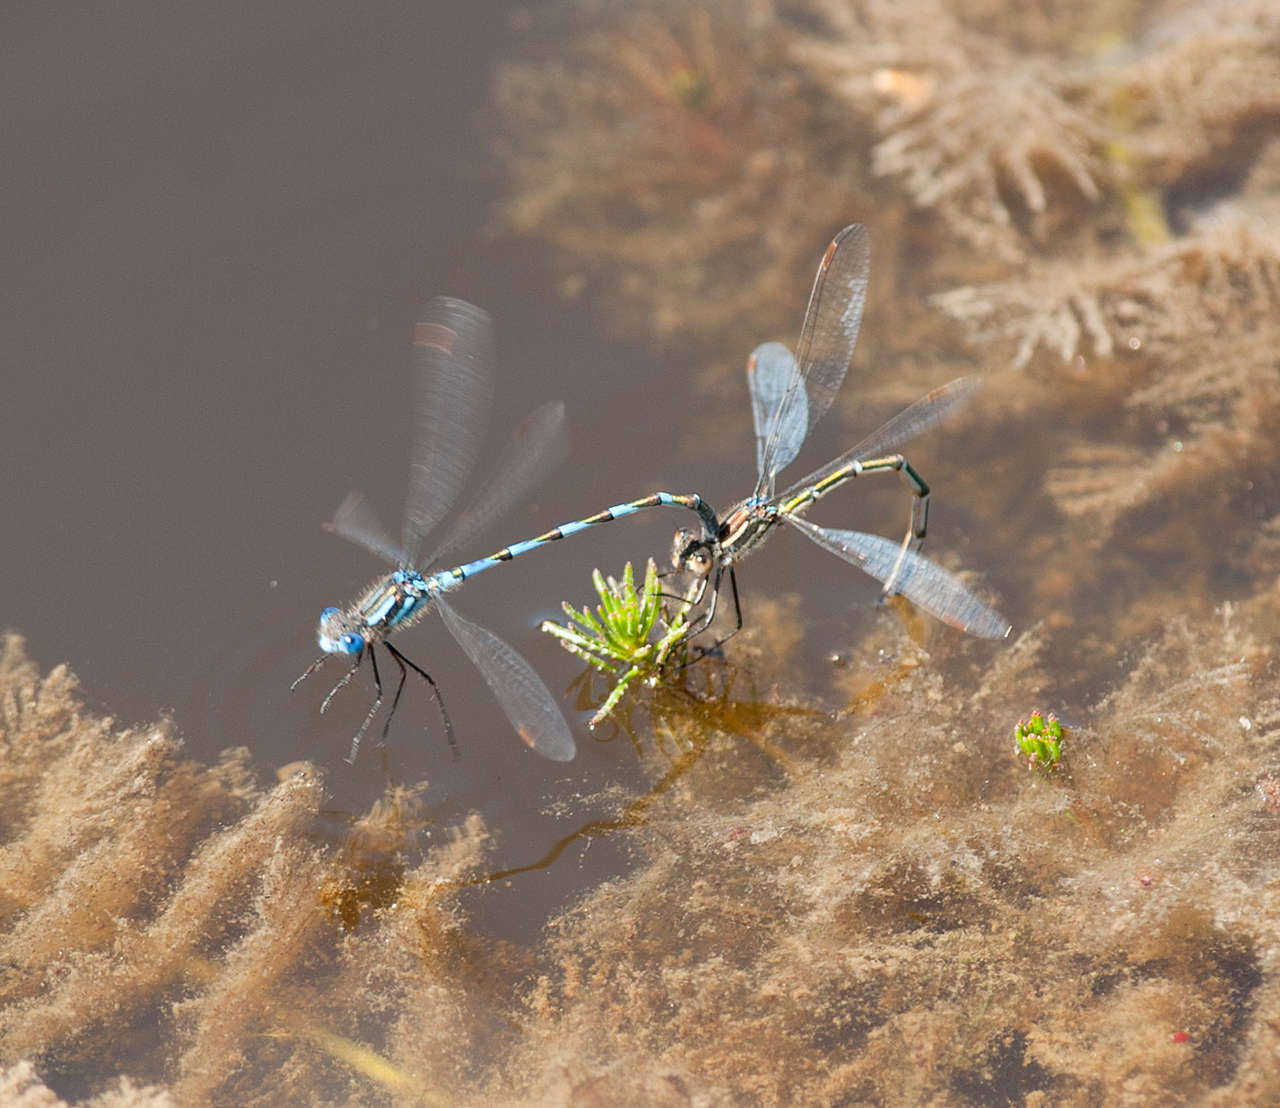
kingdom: Animalia
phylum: Arthropoda
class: Insecta
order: Odonata
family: Lestidae
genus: Austrolestes
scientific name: Austrolestes annulosus
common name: Blue ringtail
